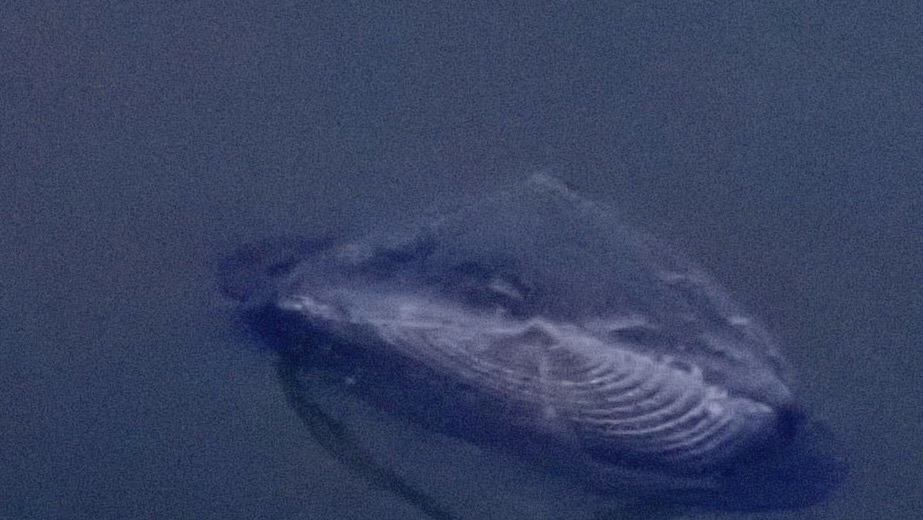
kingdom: Animalia
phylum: Cnidaria
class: Hydrozoa
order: Anthoathecata
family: Porpitidae
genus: Velella
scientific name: Velella velella
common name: By-the-wind-sailor
